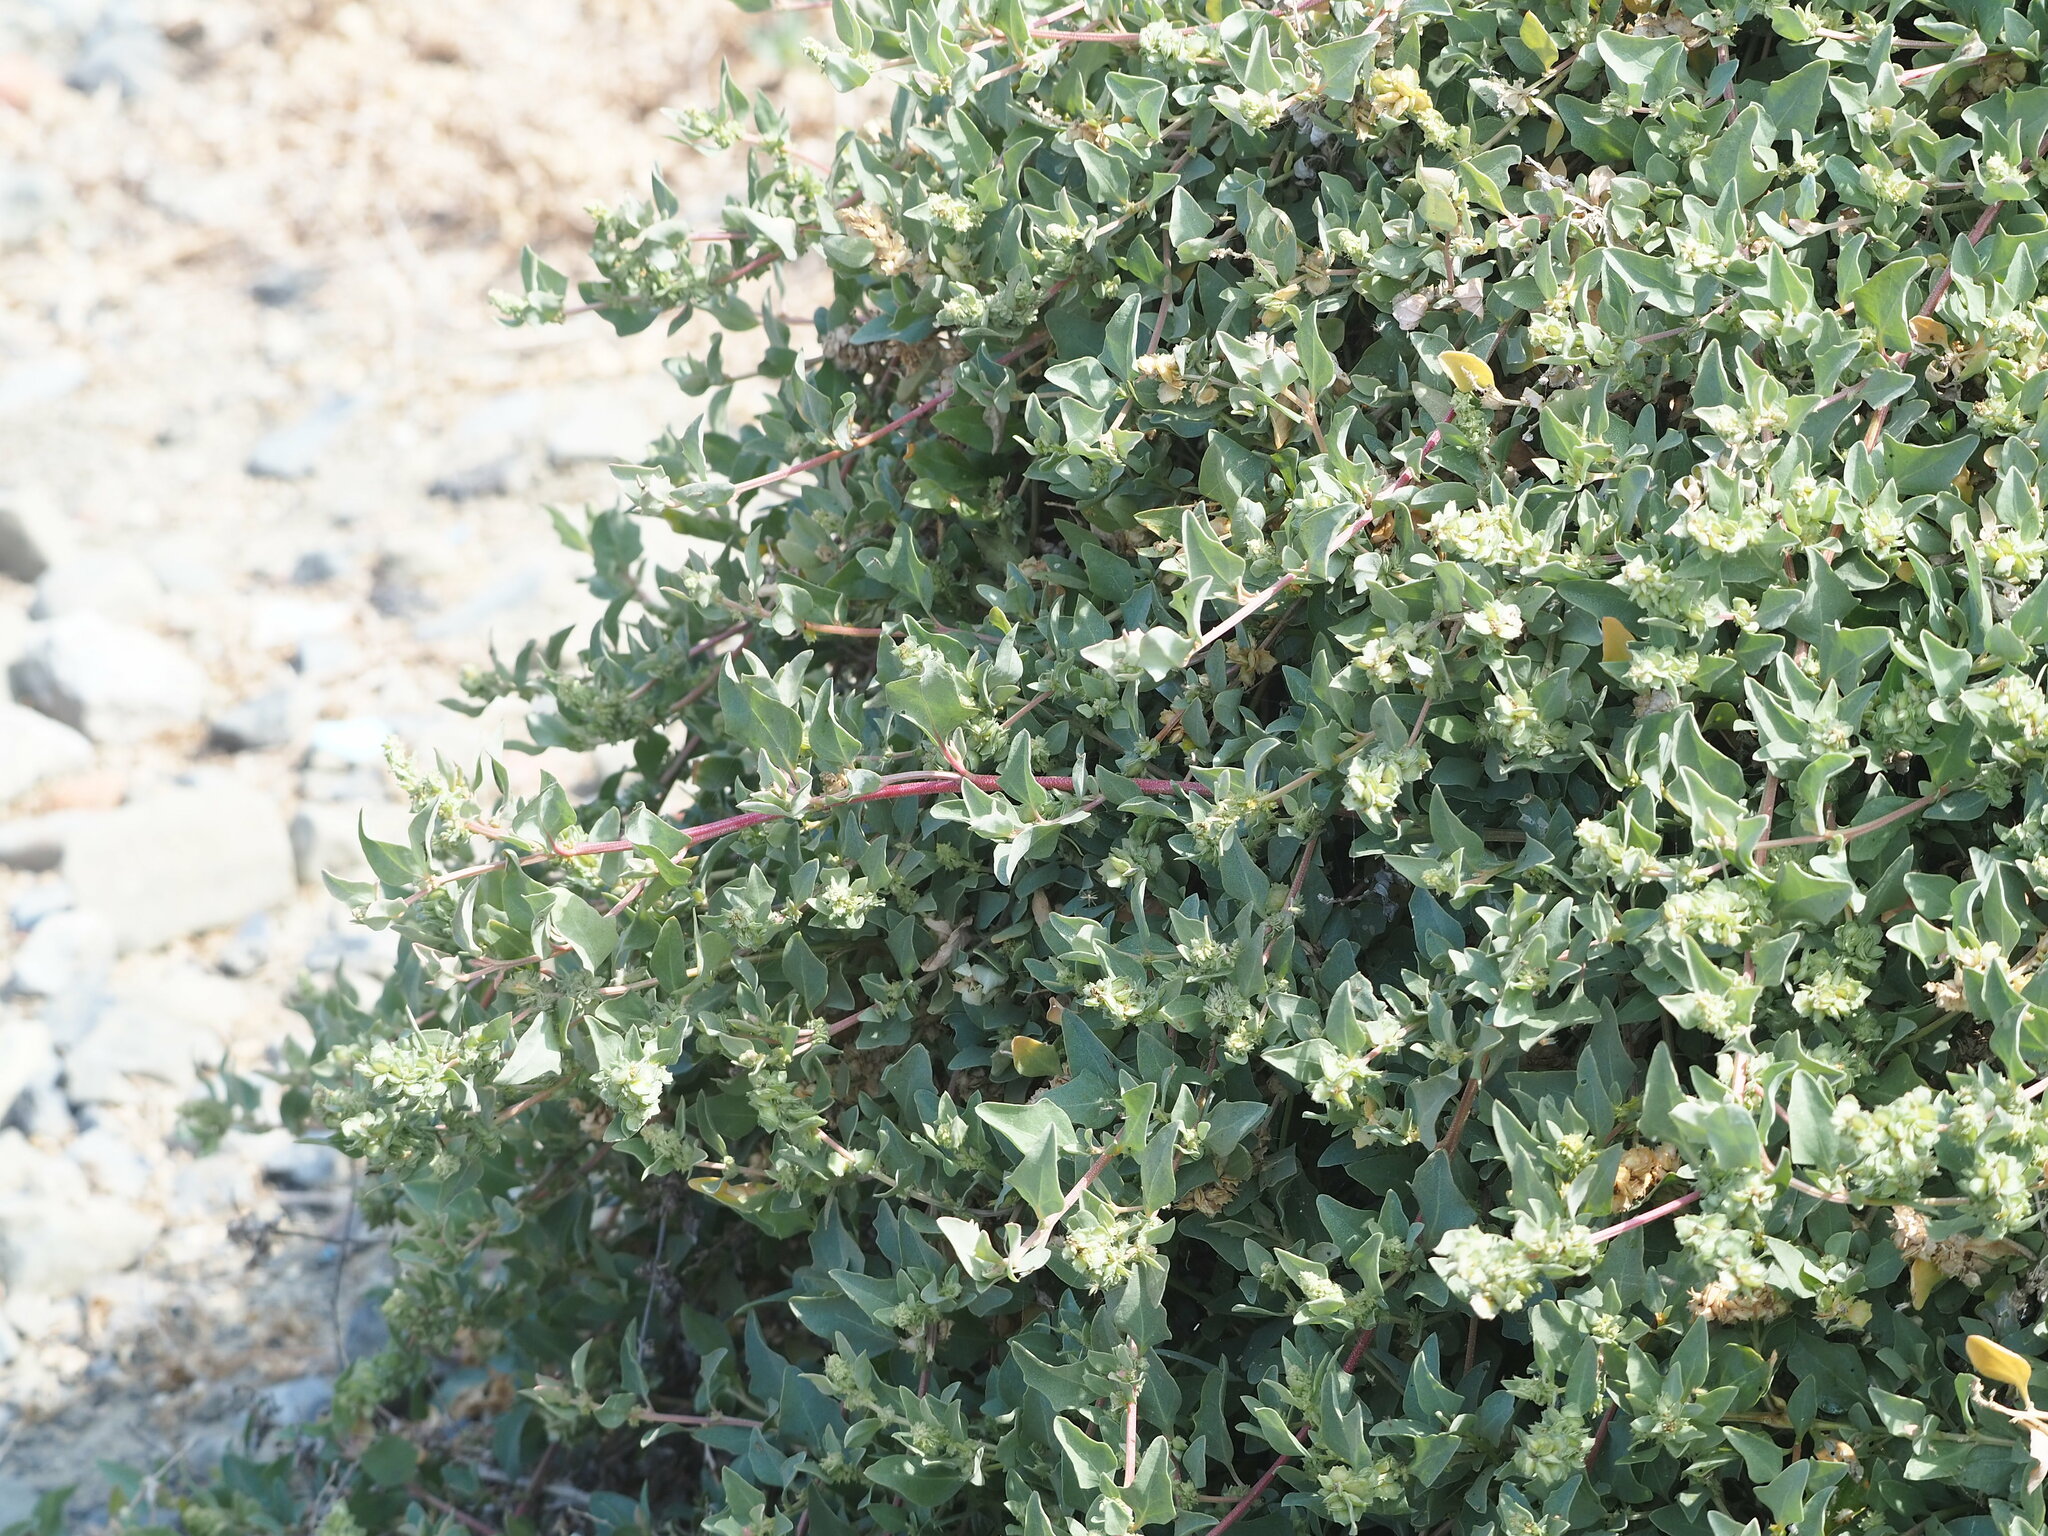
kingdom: Plantae
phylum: Tracheophyta
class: Magnoliopsida
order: Caryophyllales
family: Amaranthaceae
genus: Atriplex
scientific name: Atriplex maximowicziana
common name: Maximowicz's saltbush
